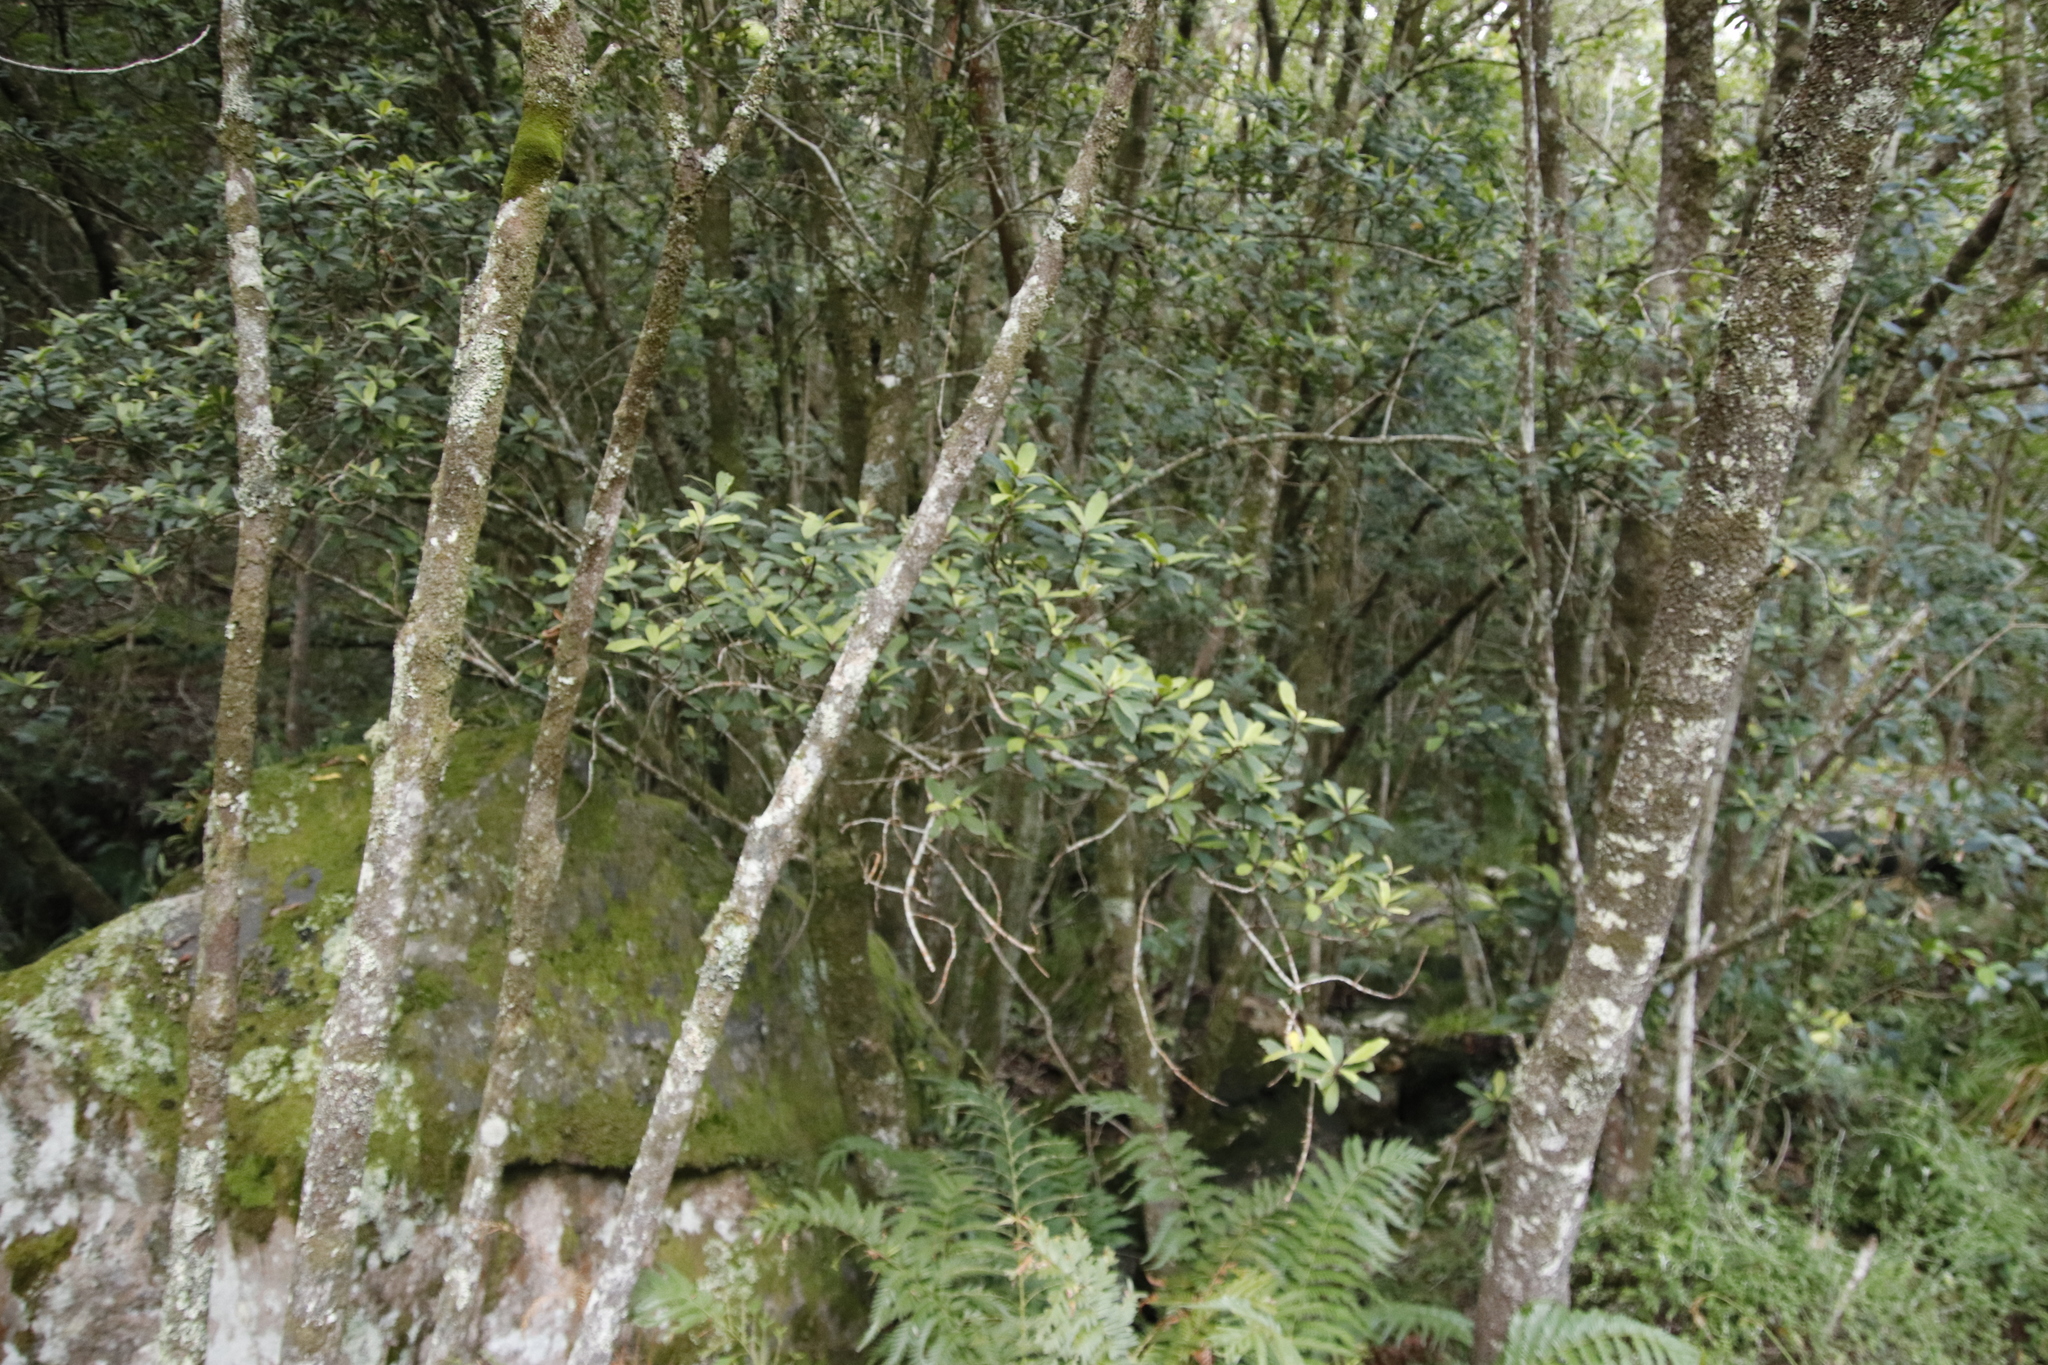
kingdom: Plantae
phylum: Tracheophyta
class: Magnoliopsida
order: Ericales
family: Primulaceae
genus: Myrsine
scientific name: Myrsine melanophloeos
